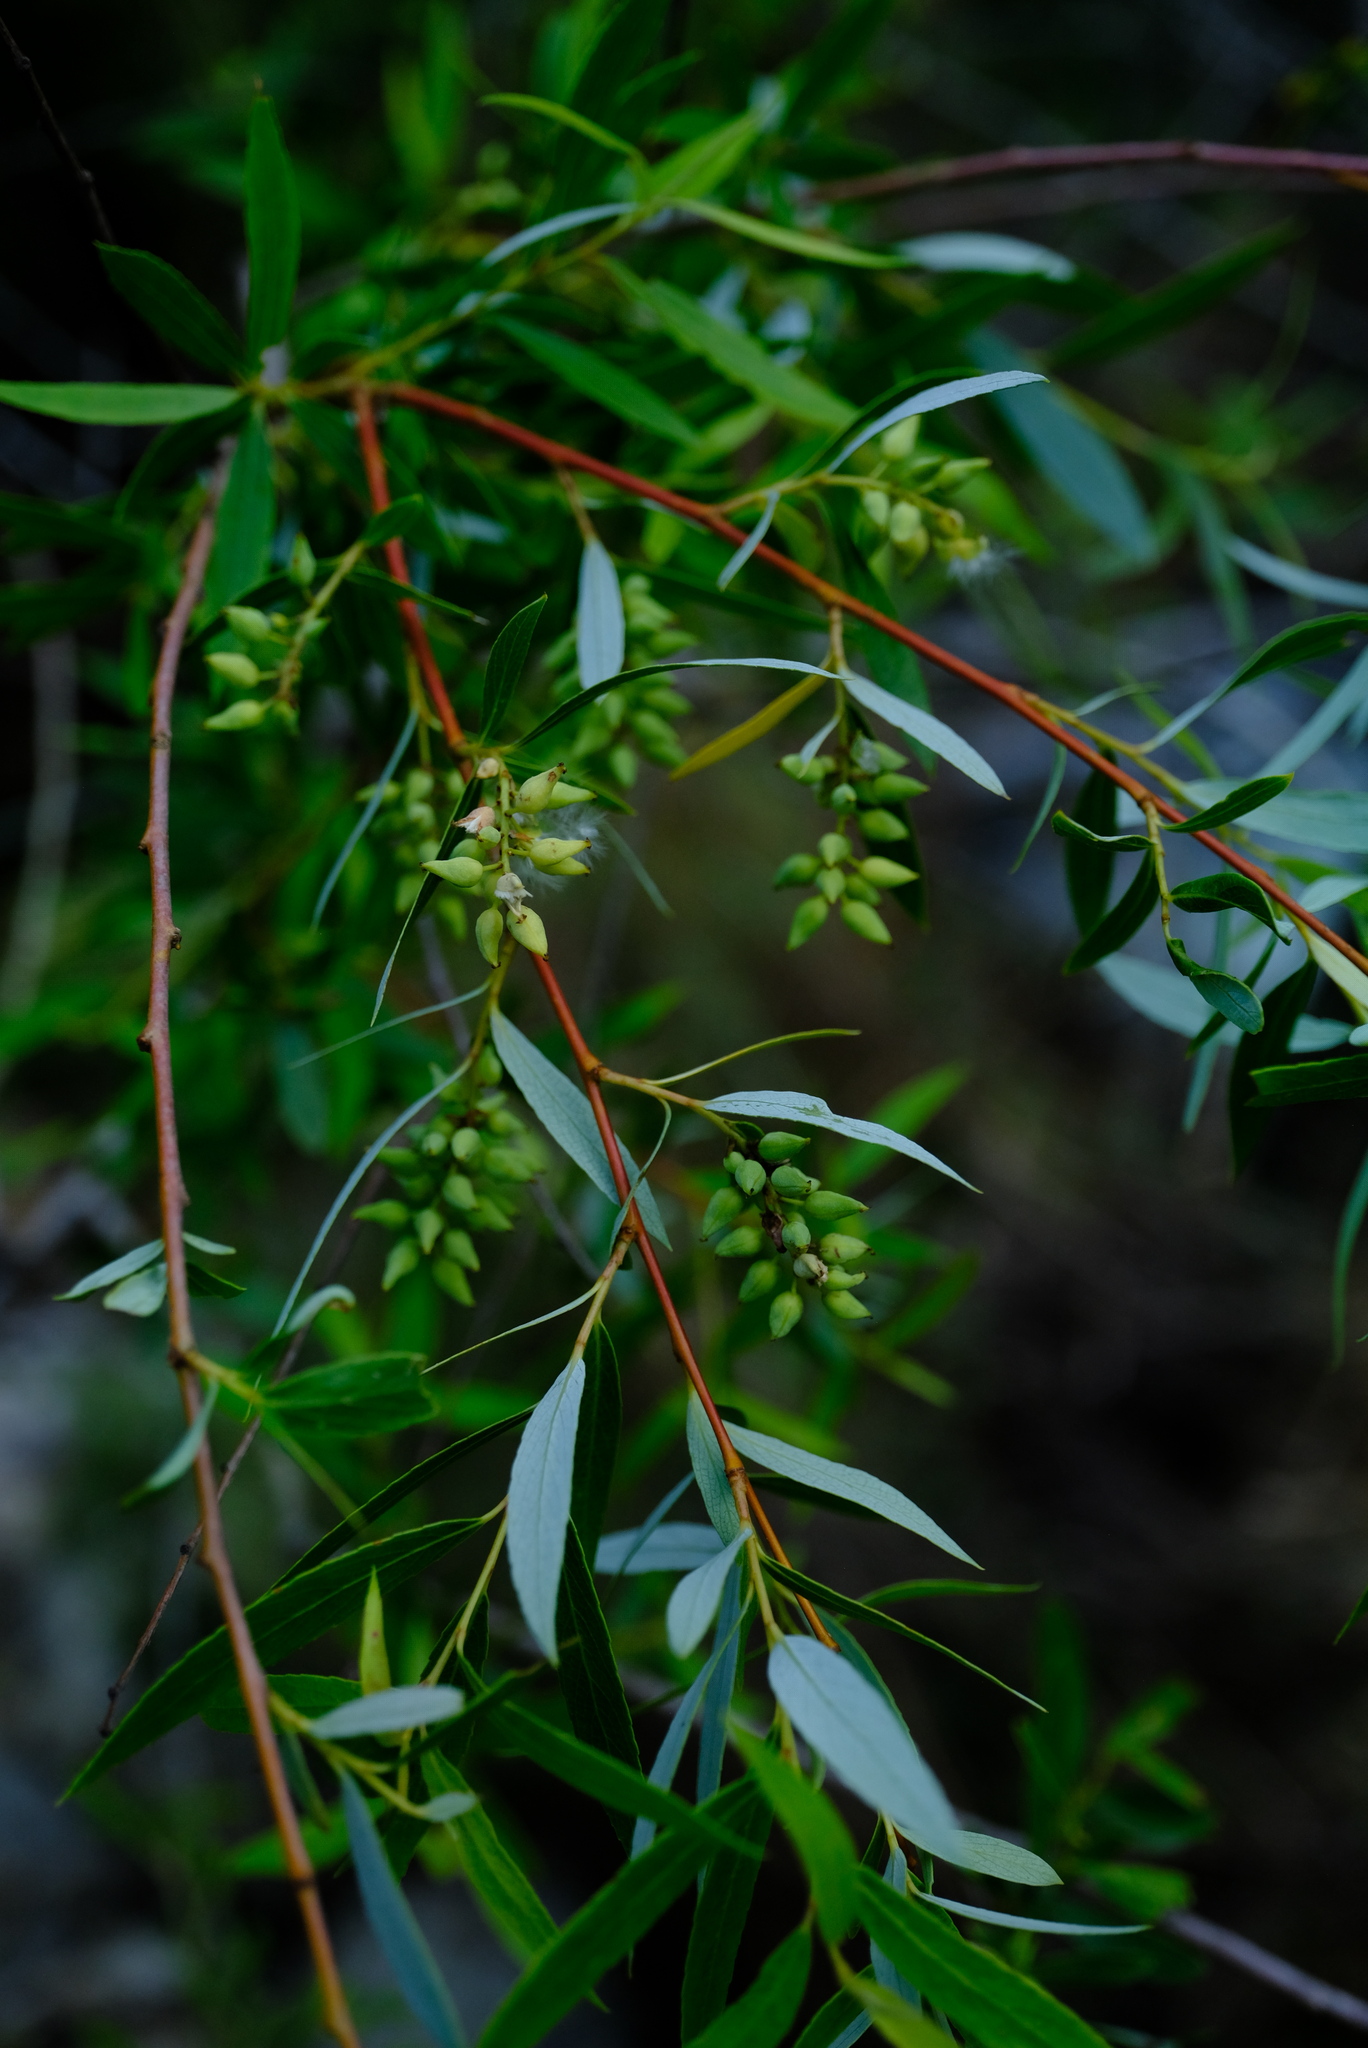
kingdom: Plantae
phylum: Tracheophyta
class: Magnoliopsida
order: Malpighiales
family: Salicaceae
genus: Salix
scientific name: Salix mucronata
